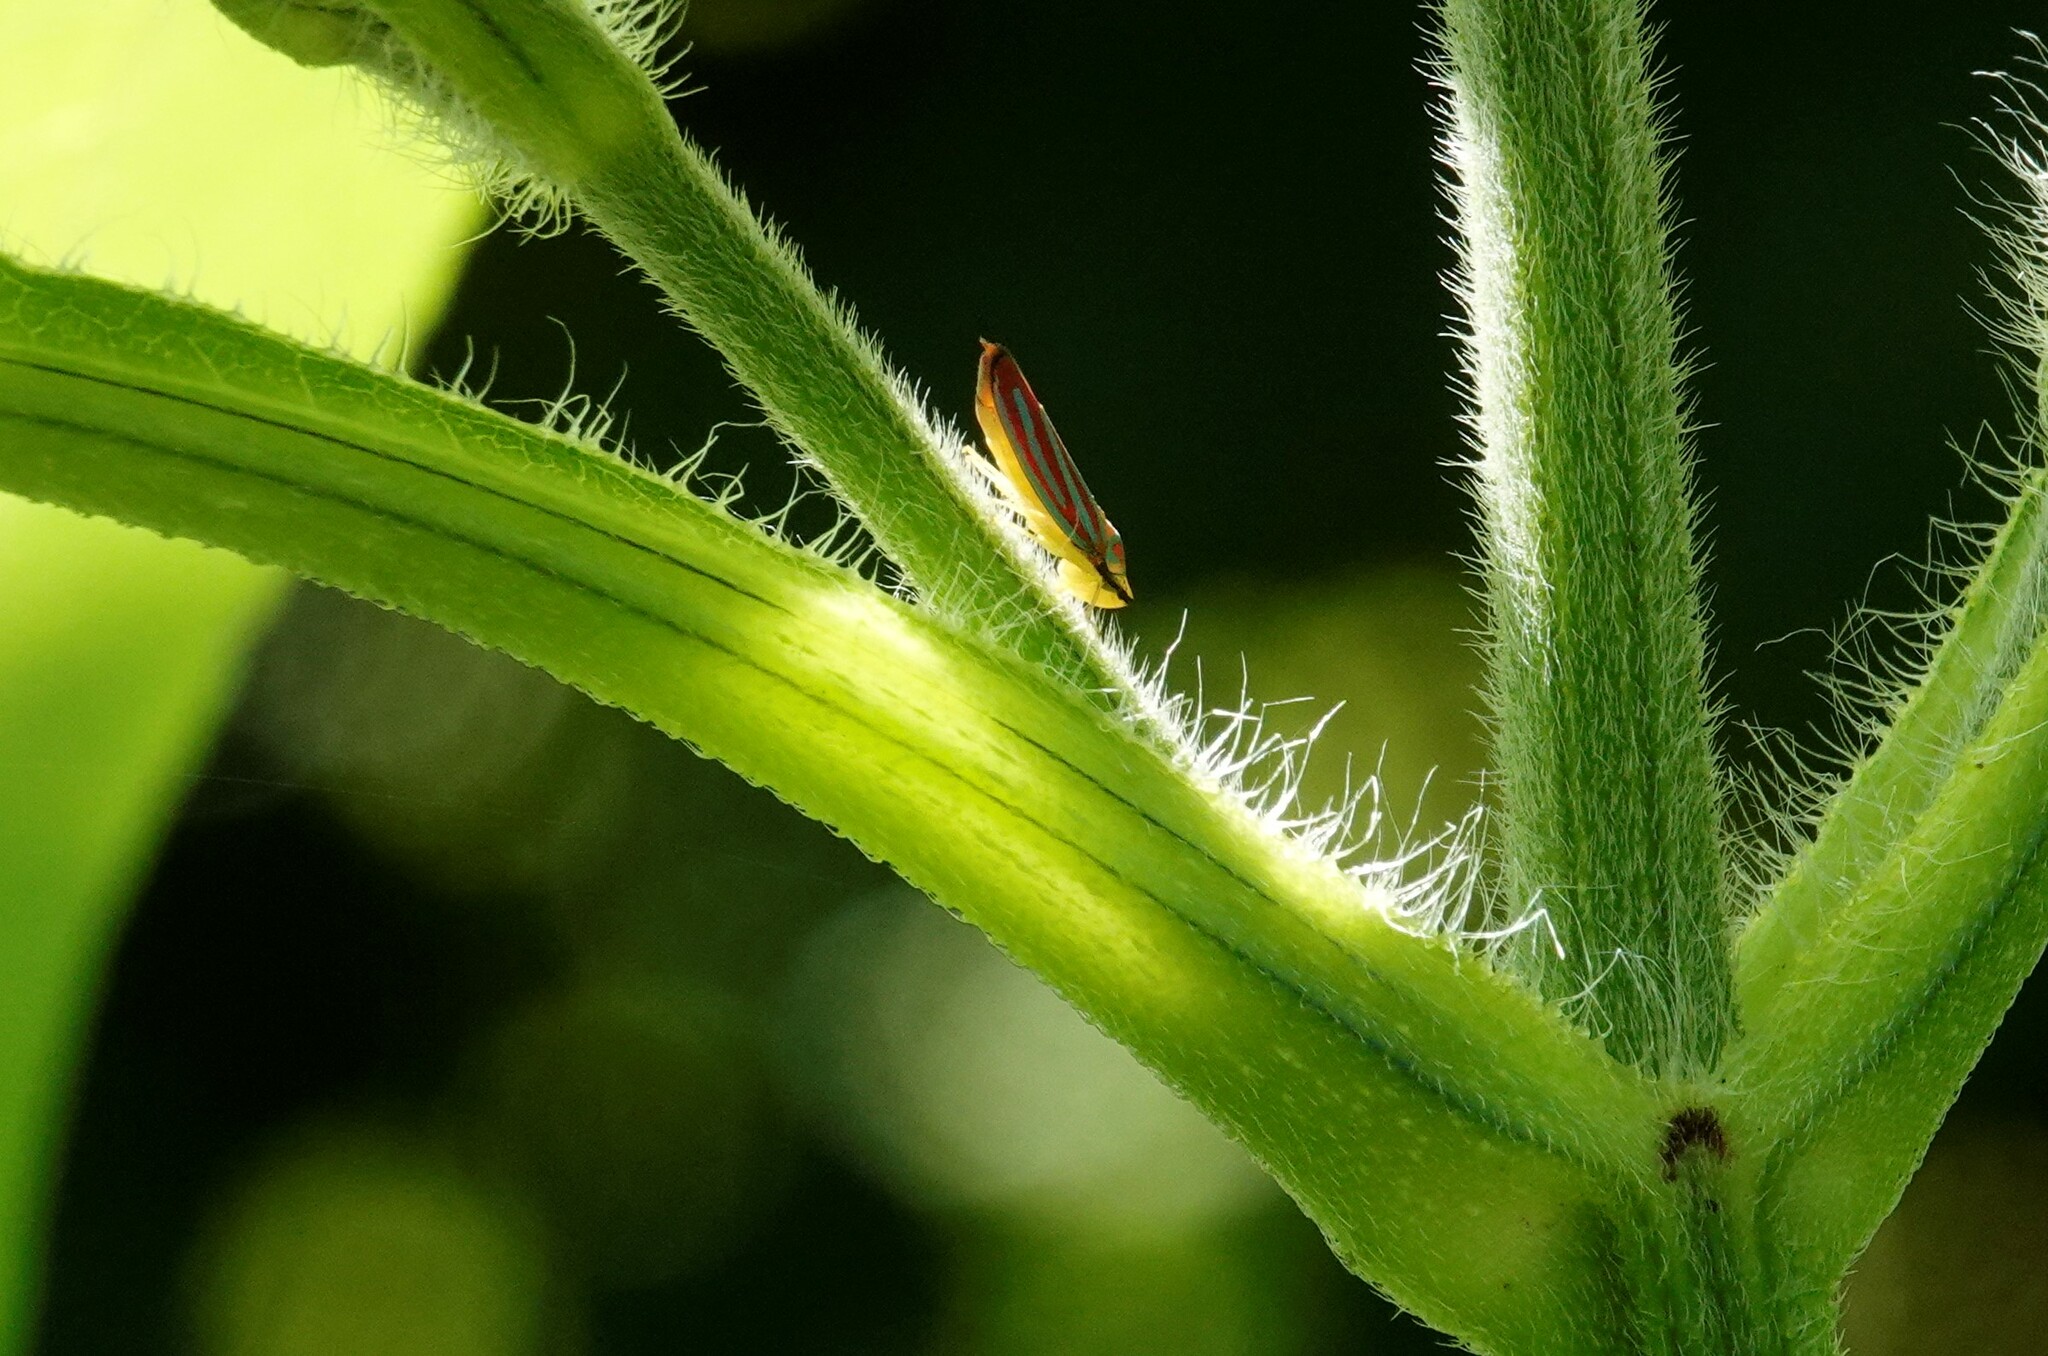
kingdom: Animalia
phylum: Arthropoda
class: Insecta
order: Hemiptera
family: Cicadellidae
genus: Graphocephala
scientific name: Graphocephala coccinea
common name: Candy-striped leafhopper
